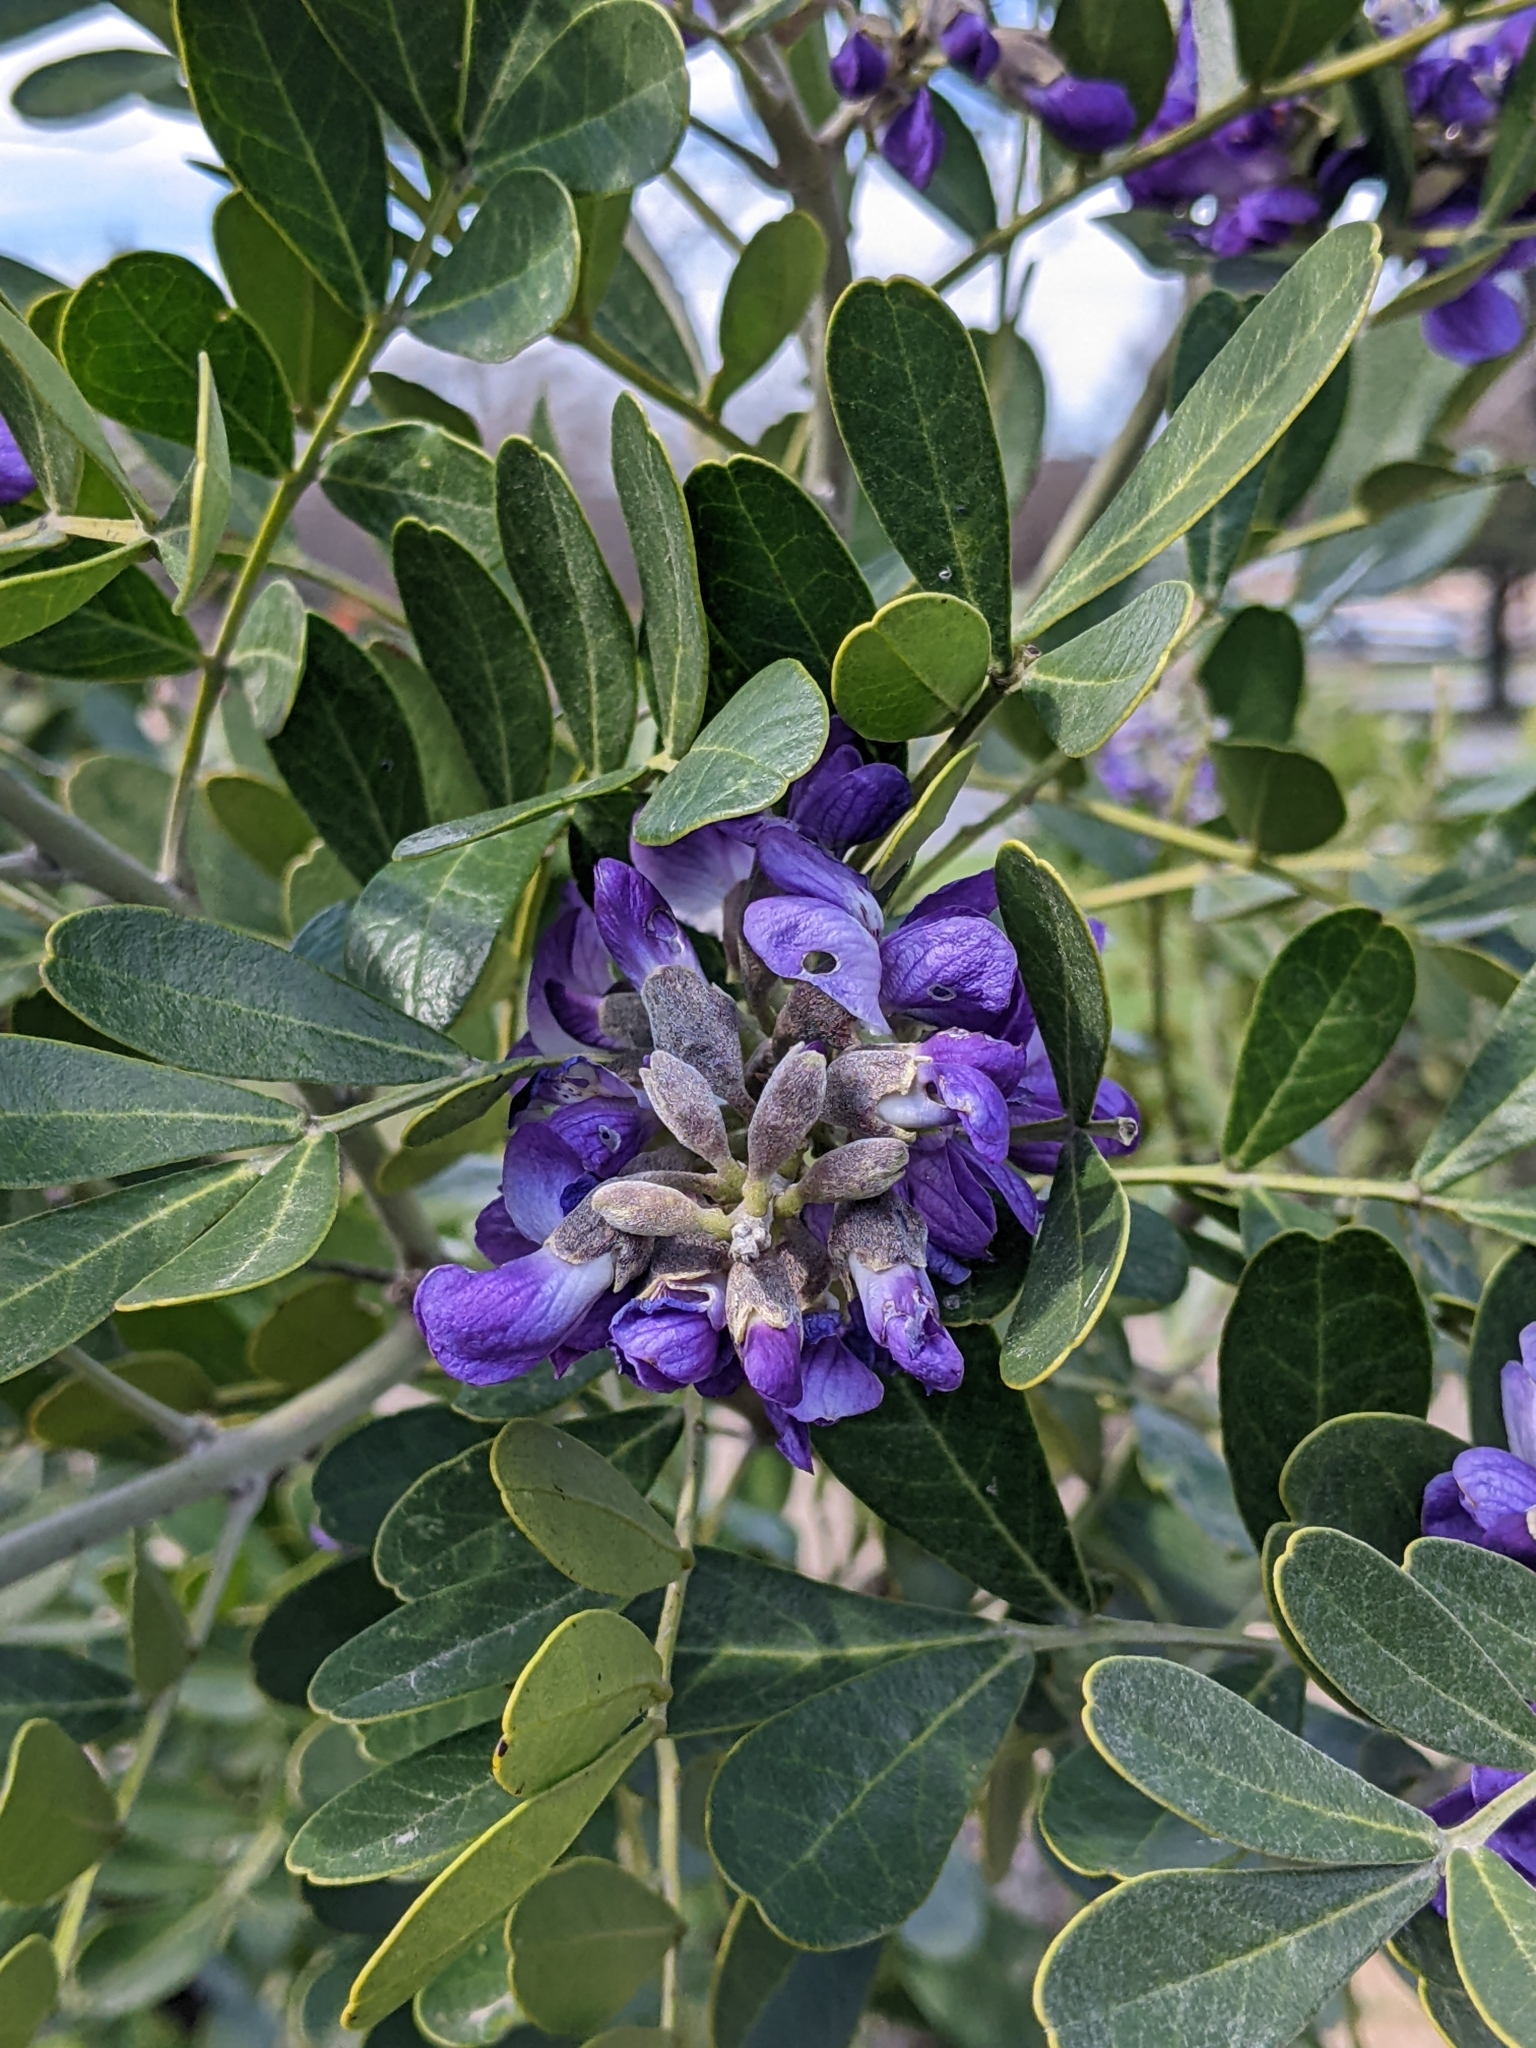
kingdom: Plantae
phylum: Tracheophyta
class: Magnoliopsida
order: Fabales
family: Fabaceae
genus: Dermatophyllum
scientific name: Dermatophyllum secundiflorum
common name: Texas-mountain-laurel
